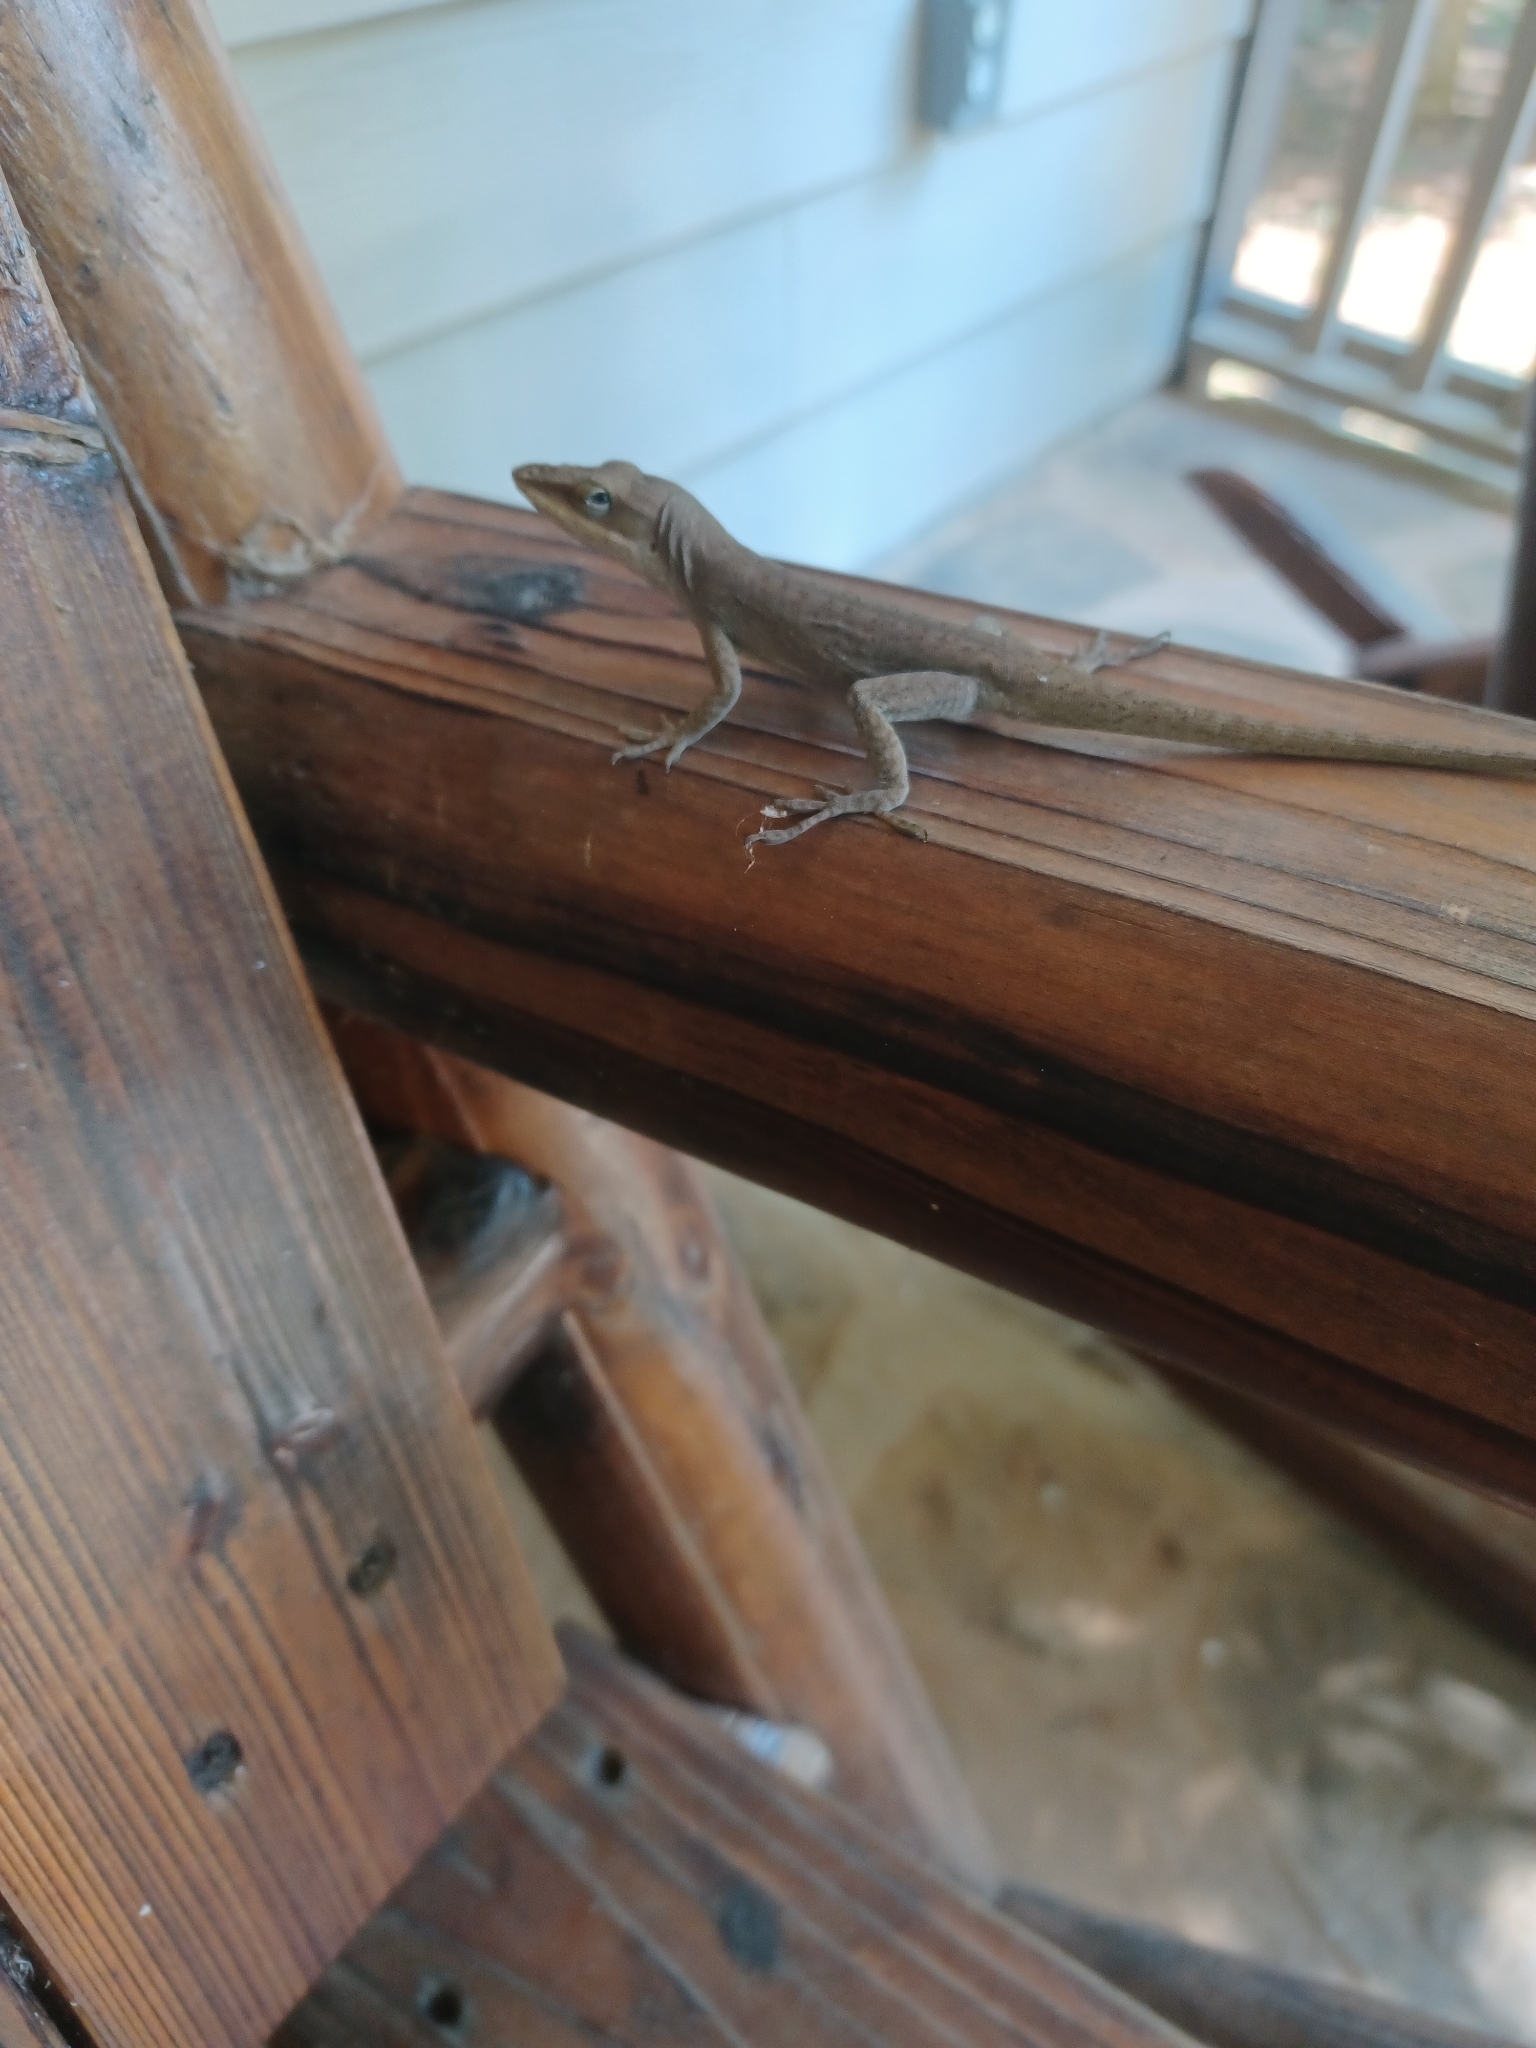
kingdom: Animalia
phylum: Chordata
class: Squamata
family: Dactyloidae
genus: Anolis
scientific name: Anolis carolinensis
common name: Green anole
